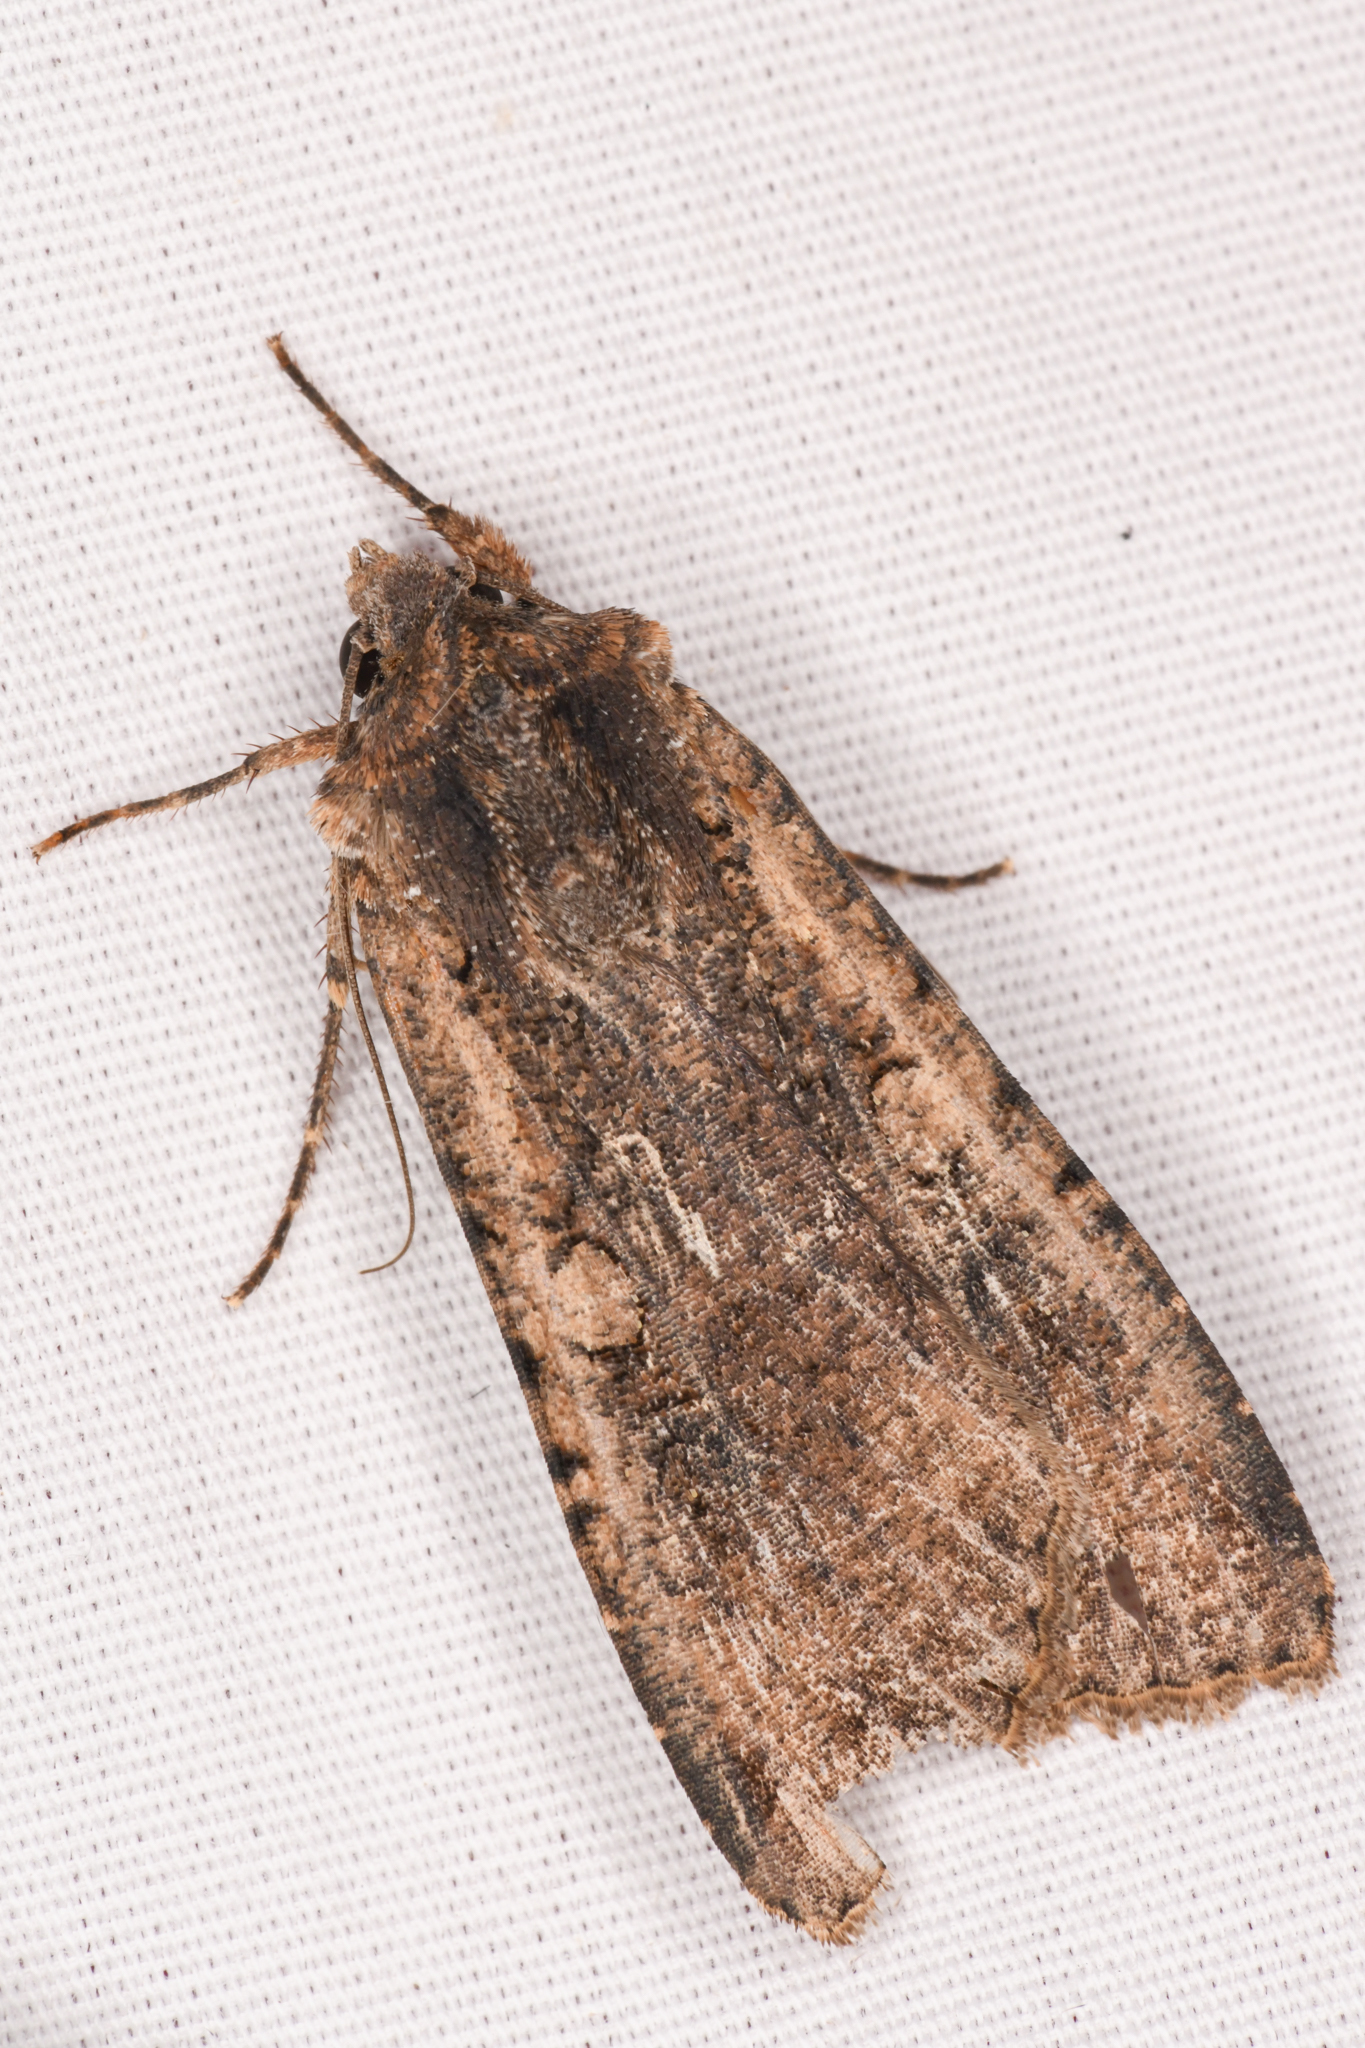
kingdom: Animalia
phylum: Arthropoda
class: Insecta
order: Lepidoptera
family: Noctuidae
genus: Peridroma
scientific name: Peridroma saucia
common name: Pearly underwing
